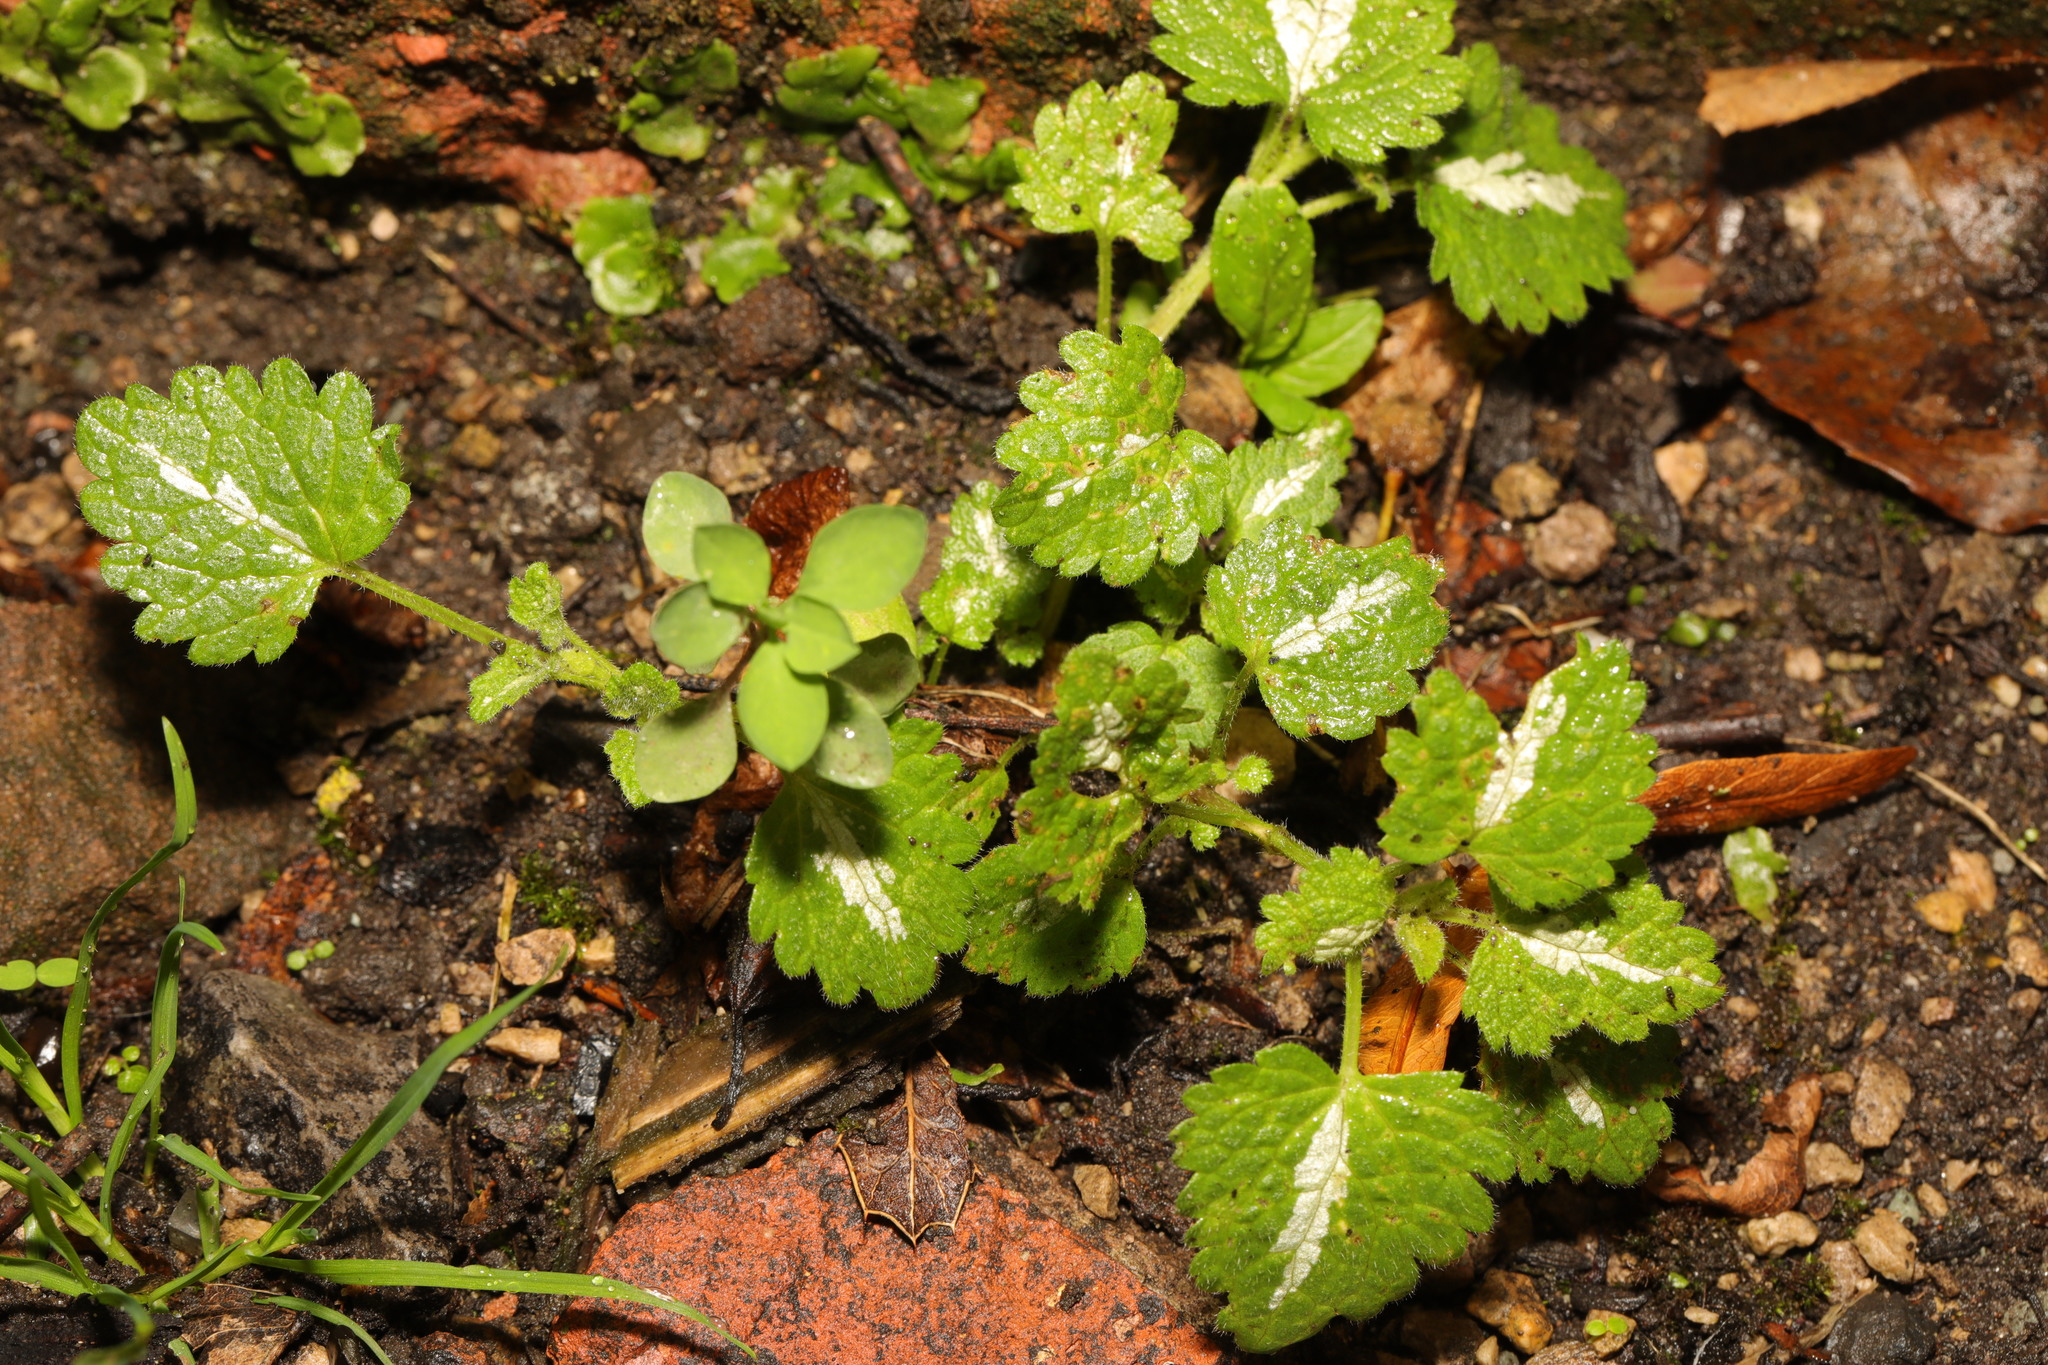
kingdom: Plantae
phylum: Tracheophyta
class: Magnoliopsida
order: Lamiales
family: Lamiaceae
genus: Lamium
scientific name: Lamium maculatum
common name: Spotted dead-nettle
